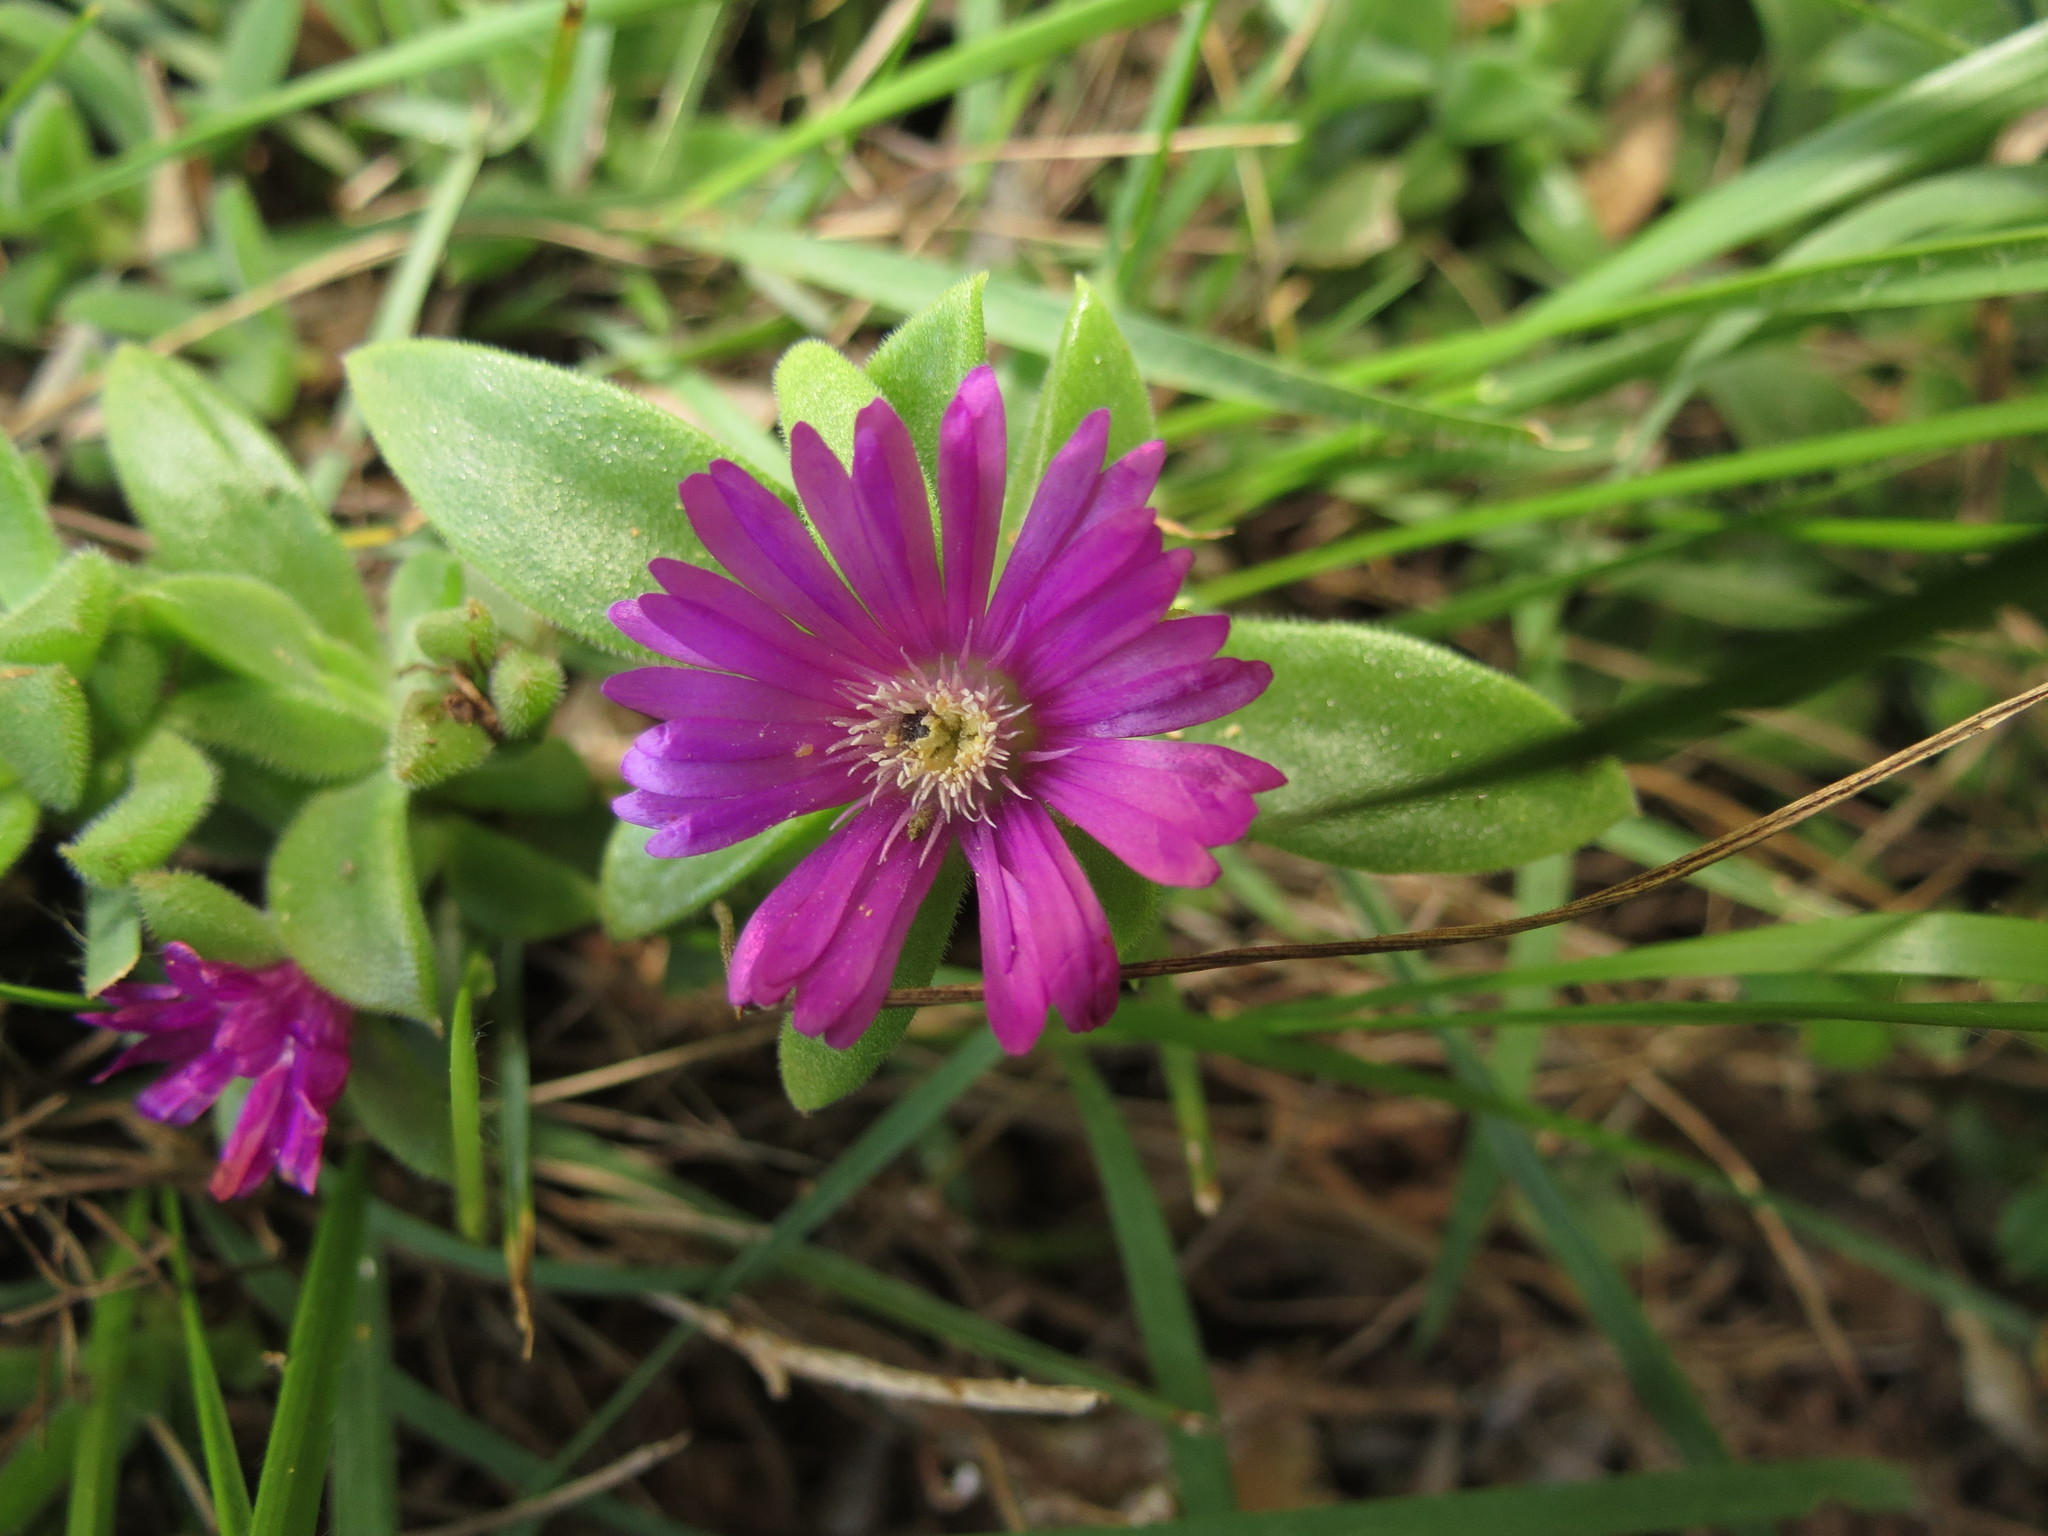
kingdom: Plantae
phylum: Tracheophyta
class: Magnoliopsida
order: Caryophyllales
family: Aizoaceae
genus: Delosperma
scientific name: Delosperma adelaidense
